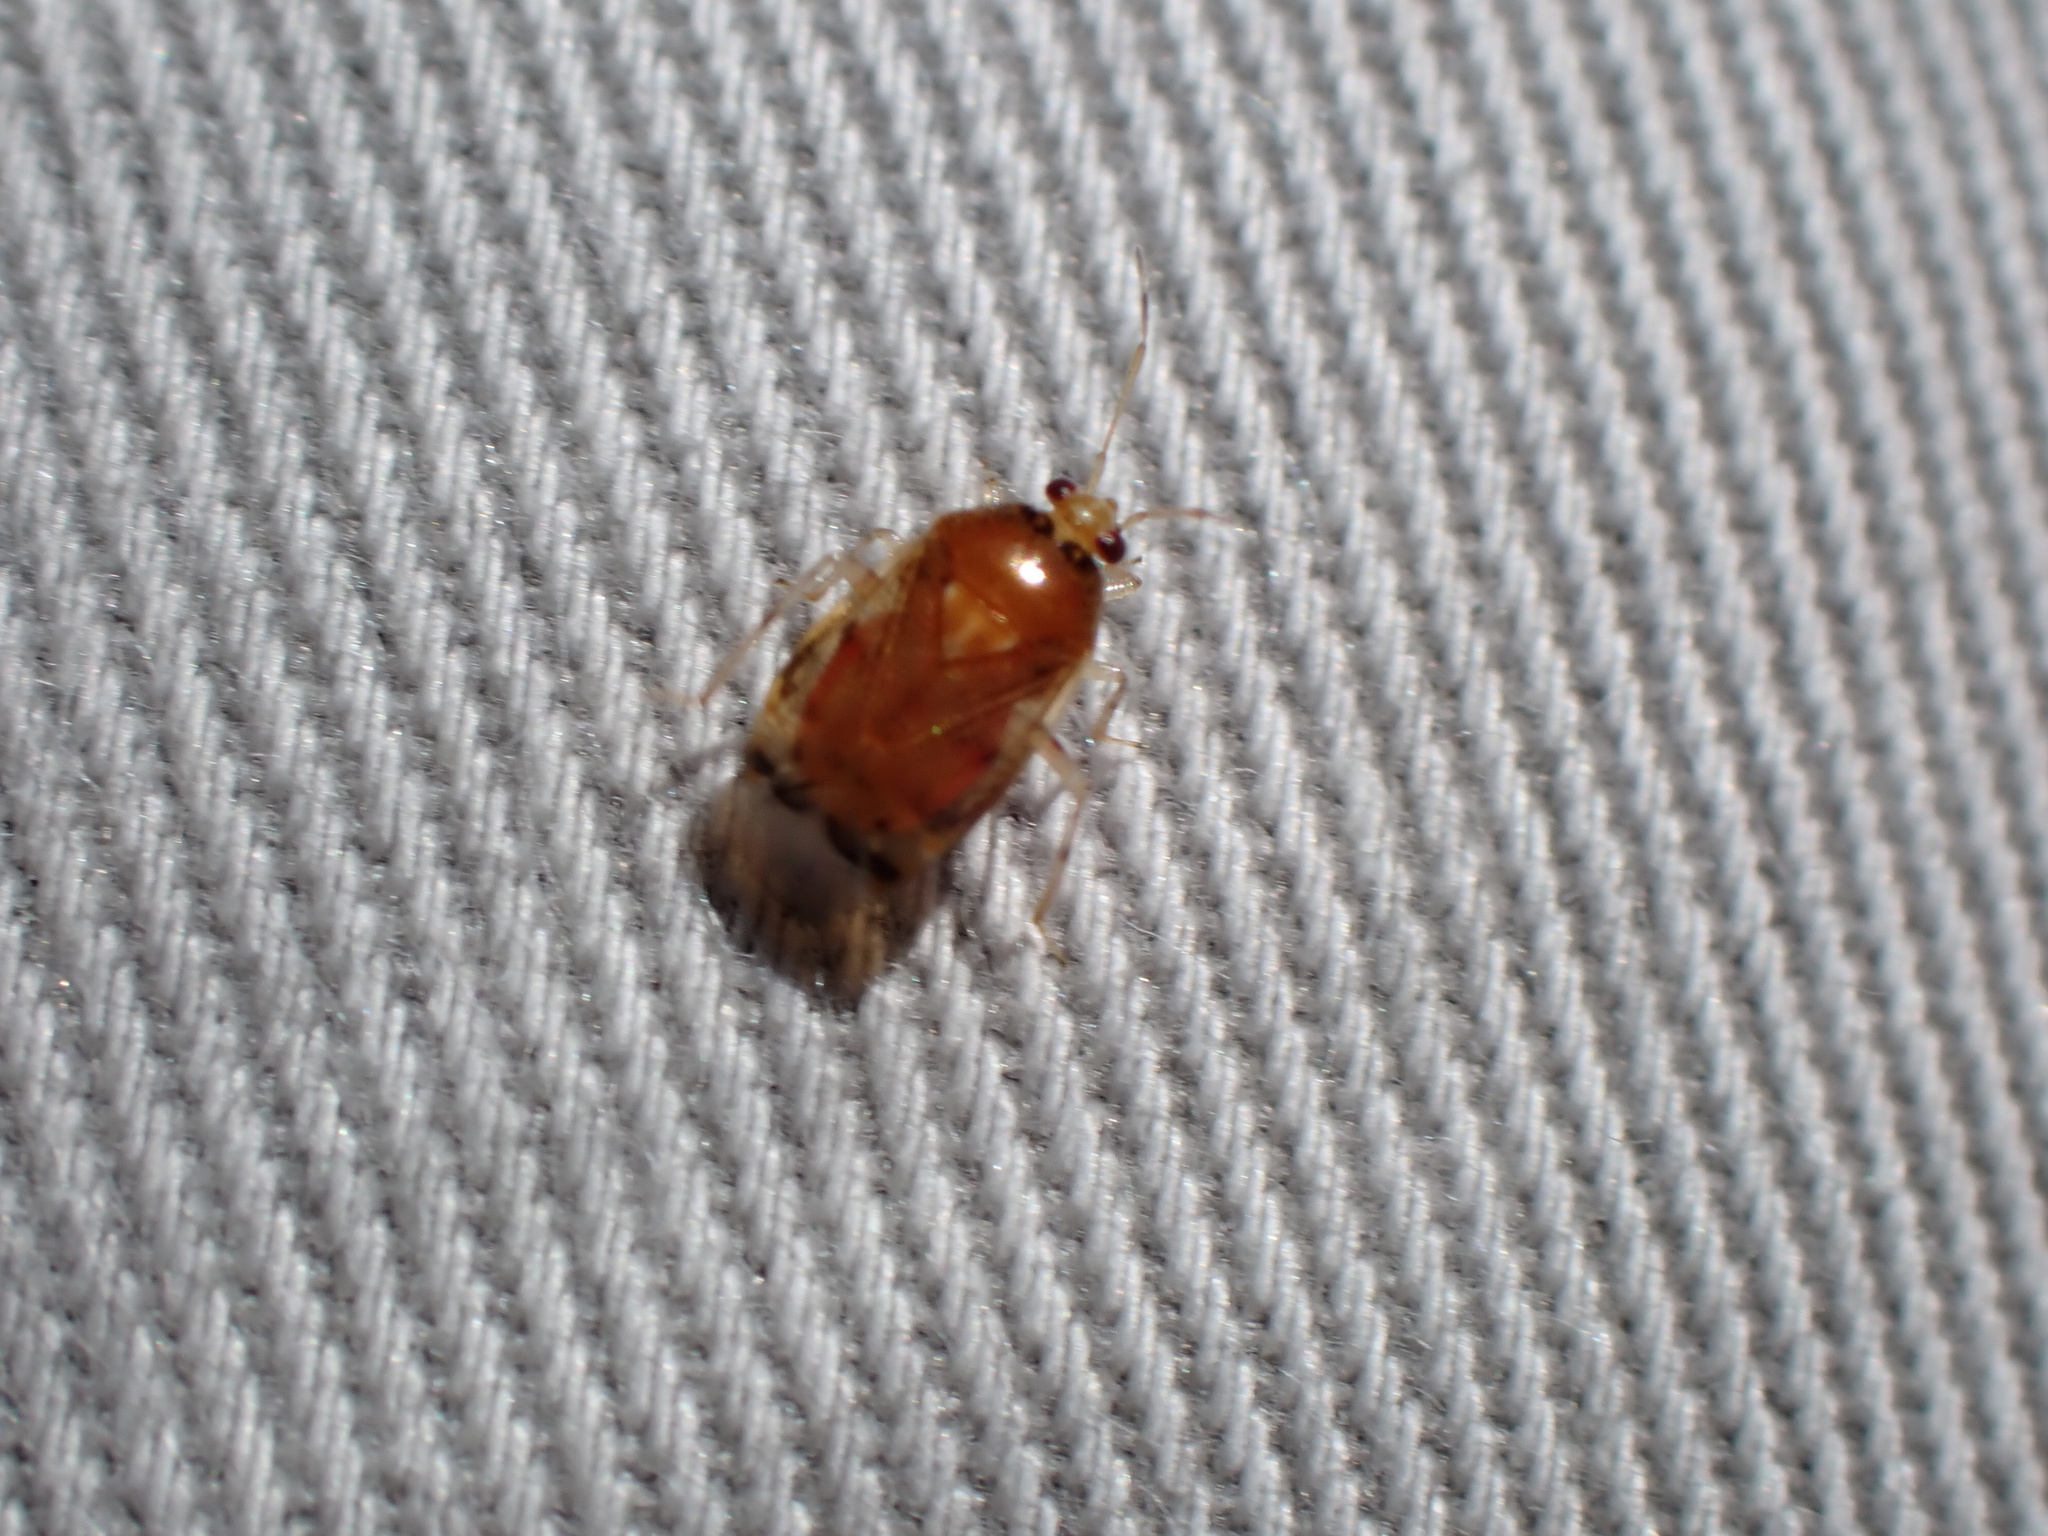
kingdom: Animalia
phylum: Arthropoda
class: Insecta
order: Hemiptera
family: Miridae
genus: Deraeocoris
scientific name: Deraeocoris lutescens
